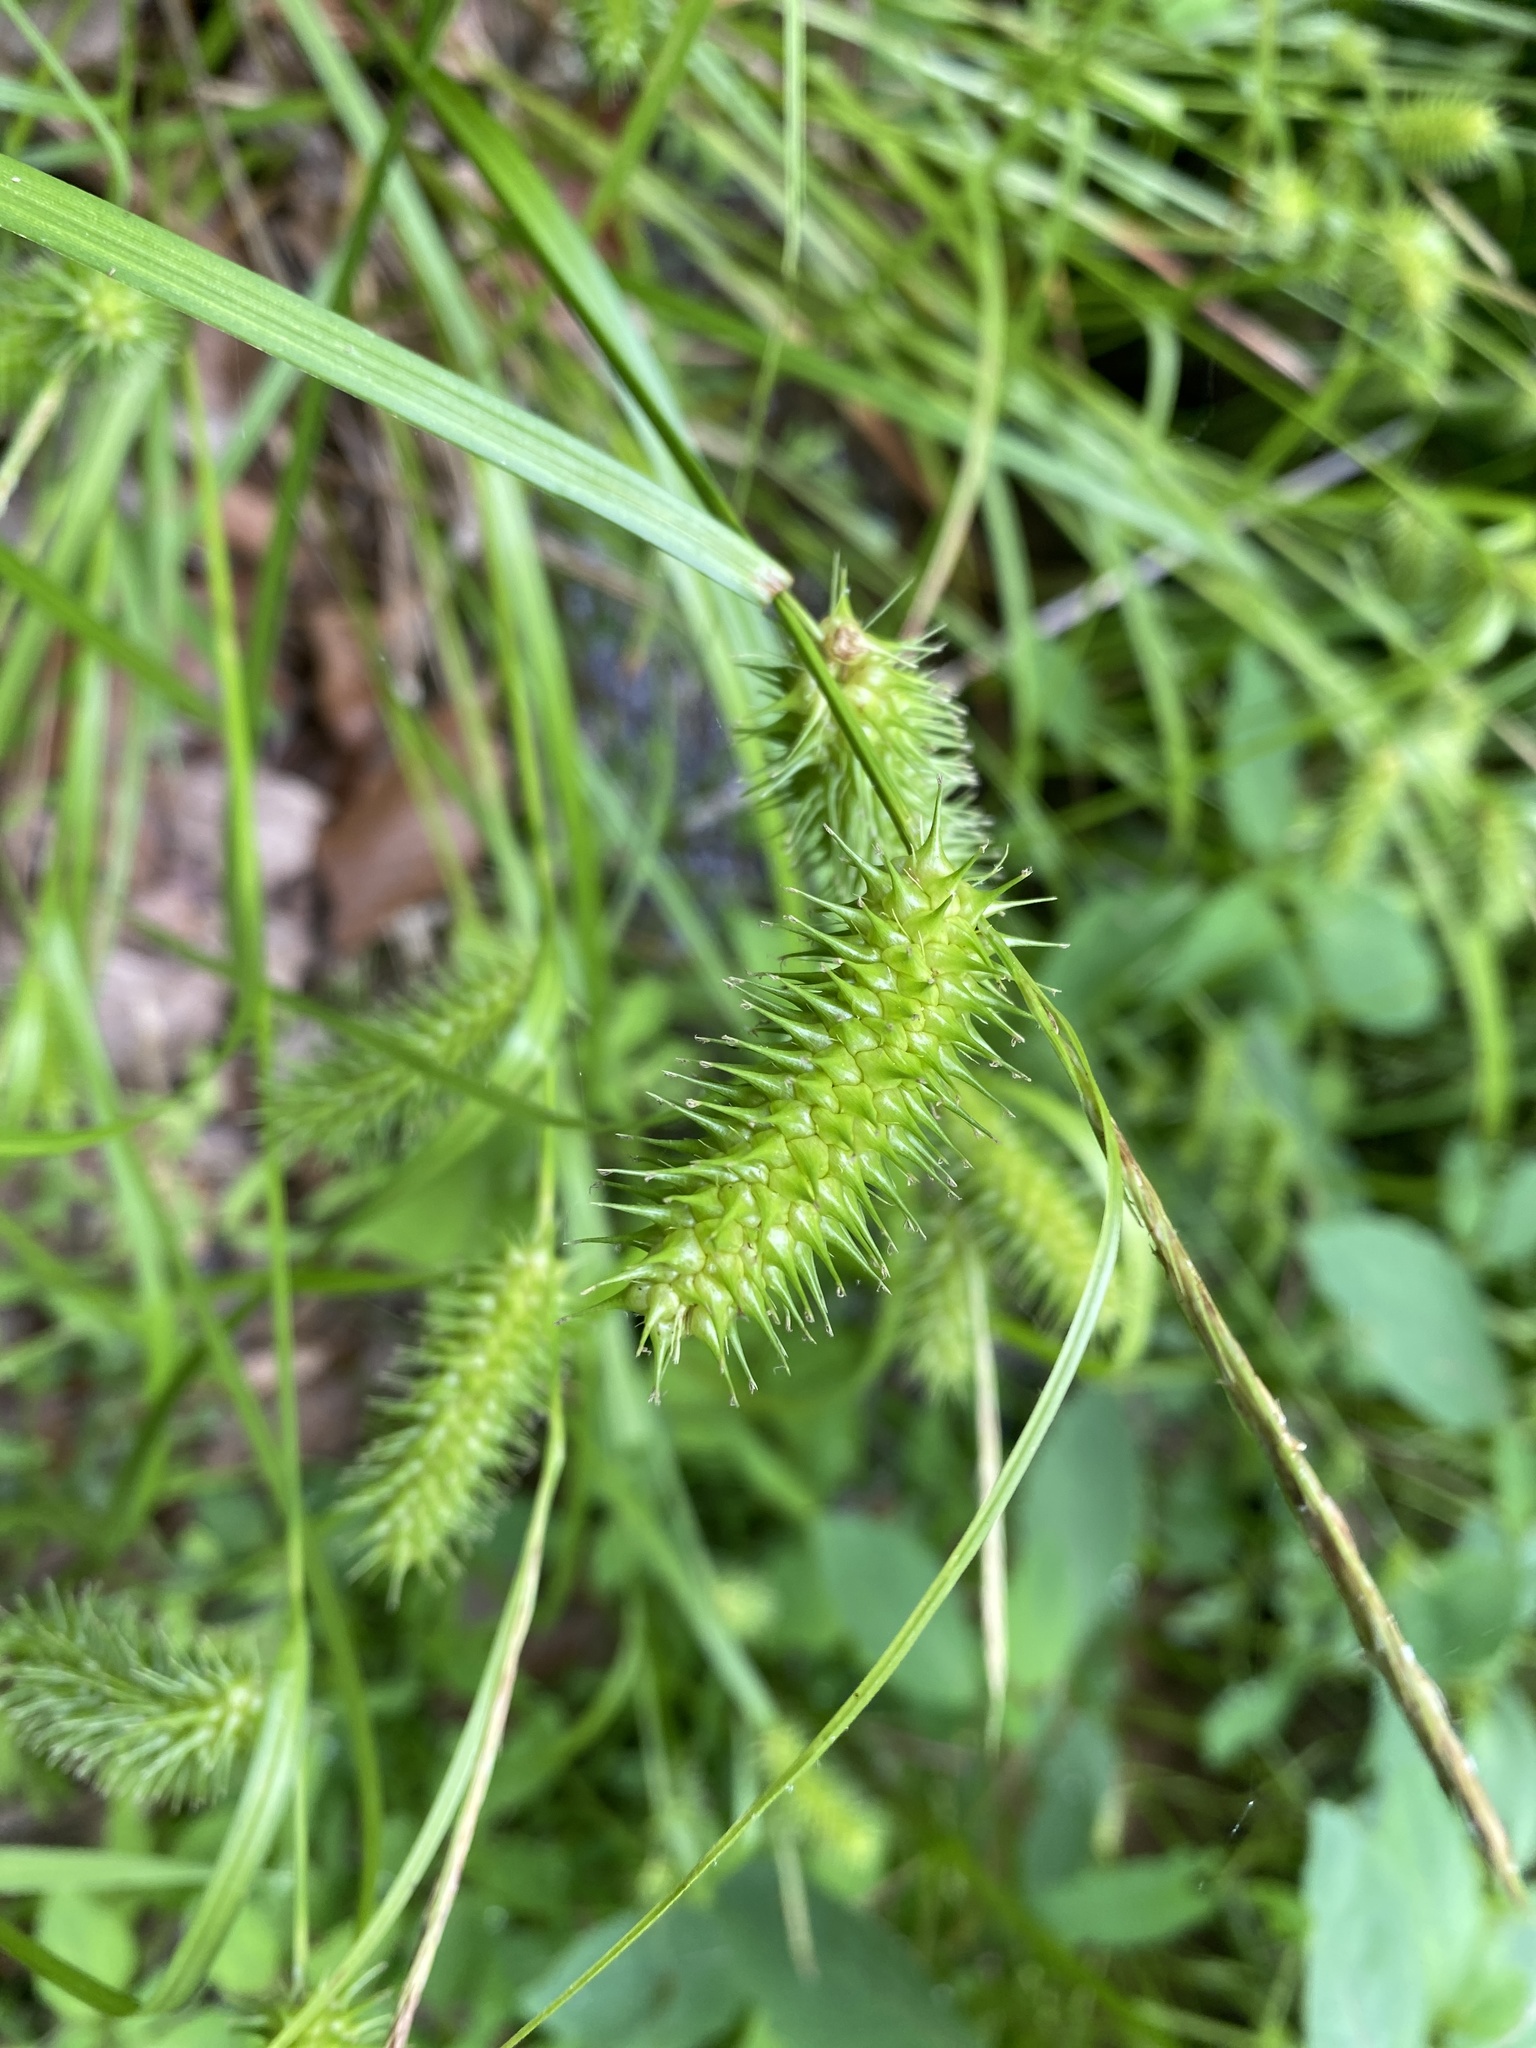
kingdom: Plantae
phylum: Tracheophyta
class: Liliopsida
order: Poales
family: Cyperaceae
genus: Carex
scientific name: Carex lurida
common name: Sallow sedge
